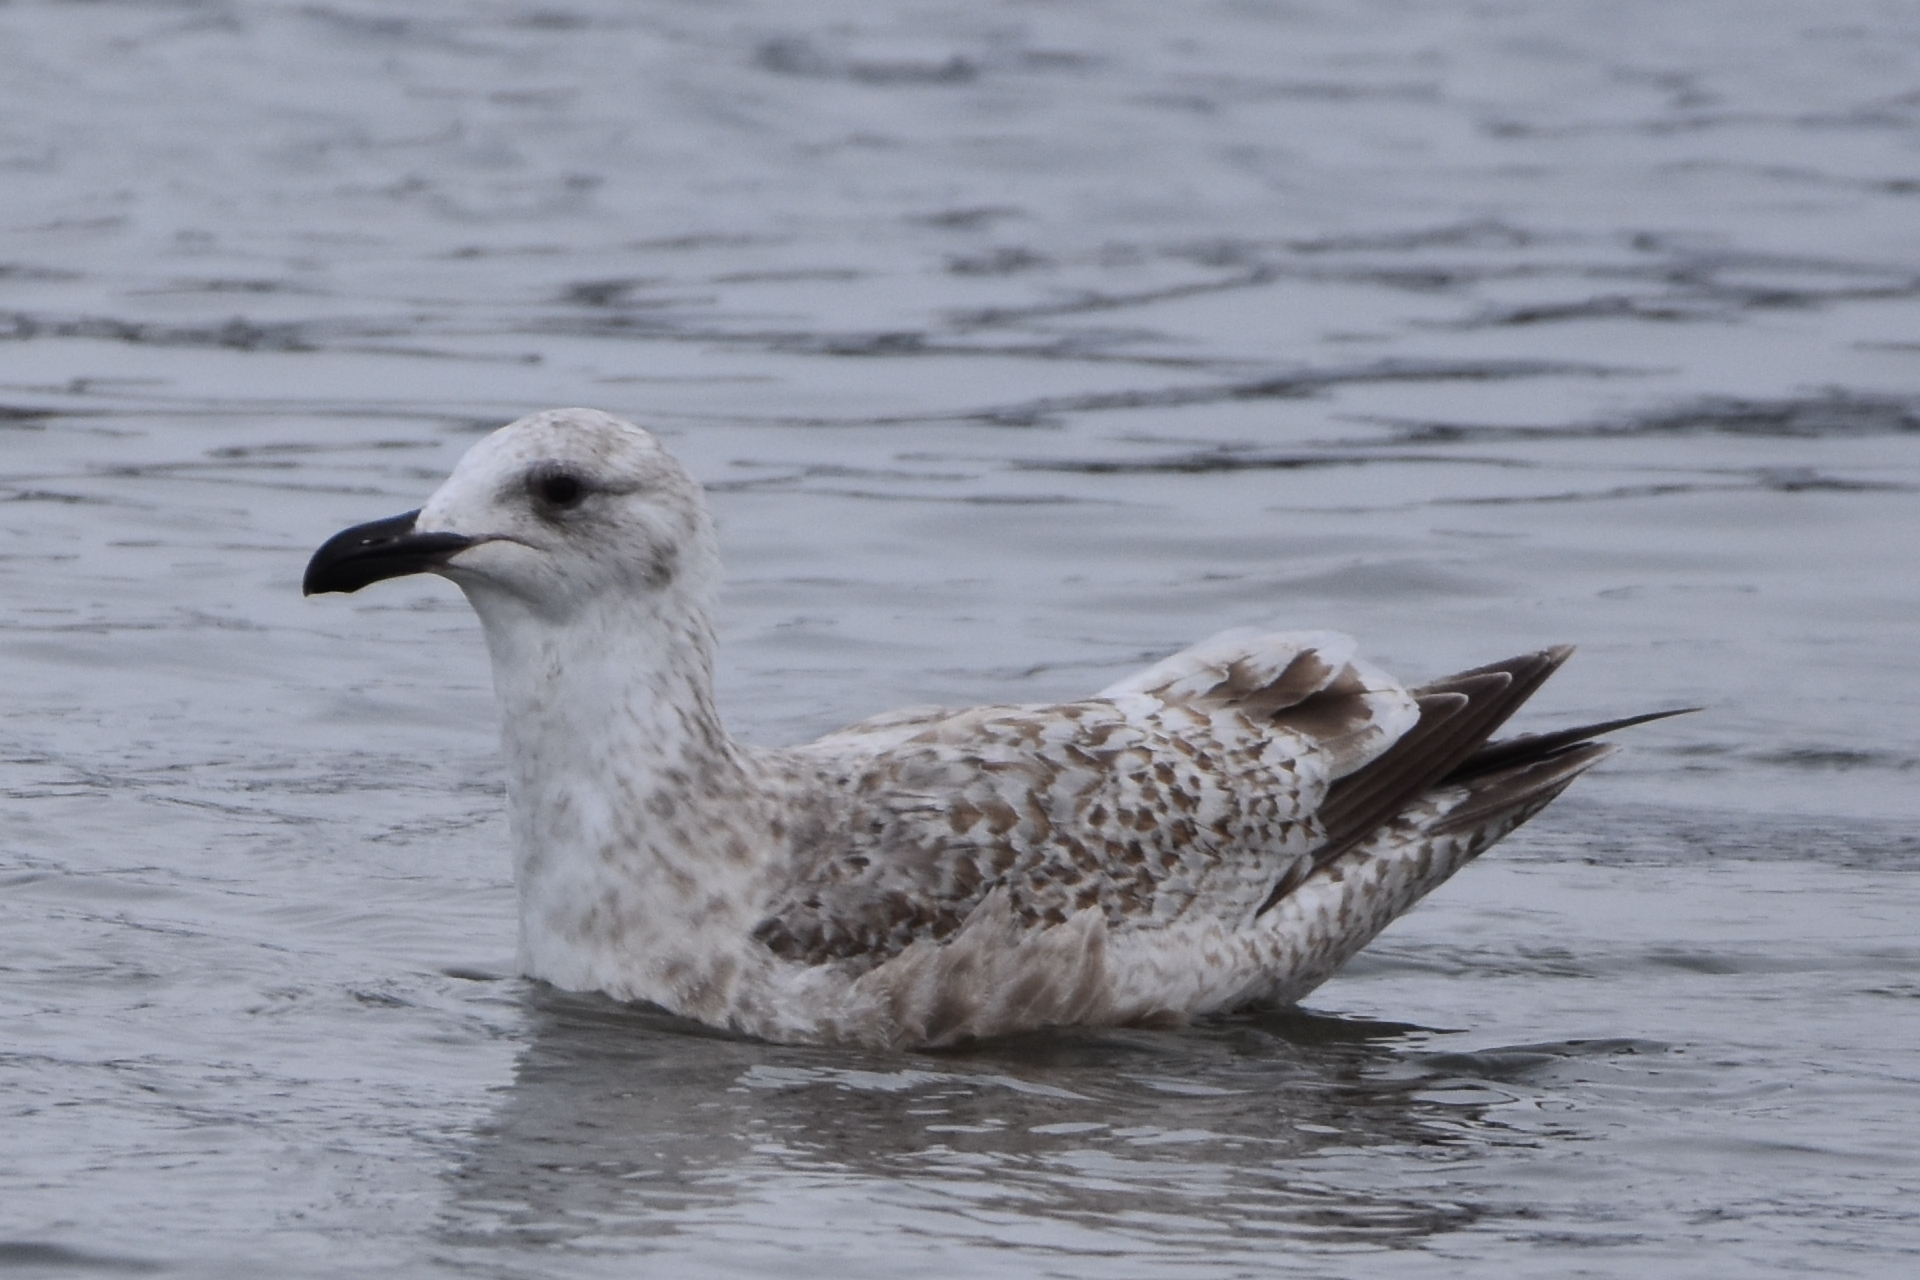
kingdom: Animalia
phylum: Chordata
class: Aves
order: Charadriiformes
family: Laridae
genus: Larus
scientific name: Larus schistisagus
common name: Slaty-backed gull
